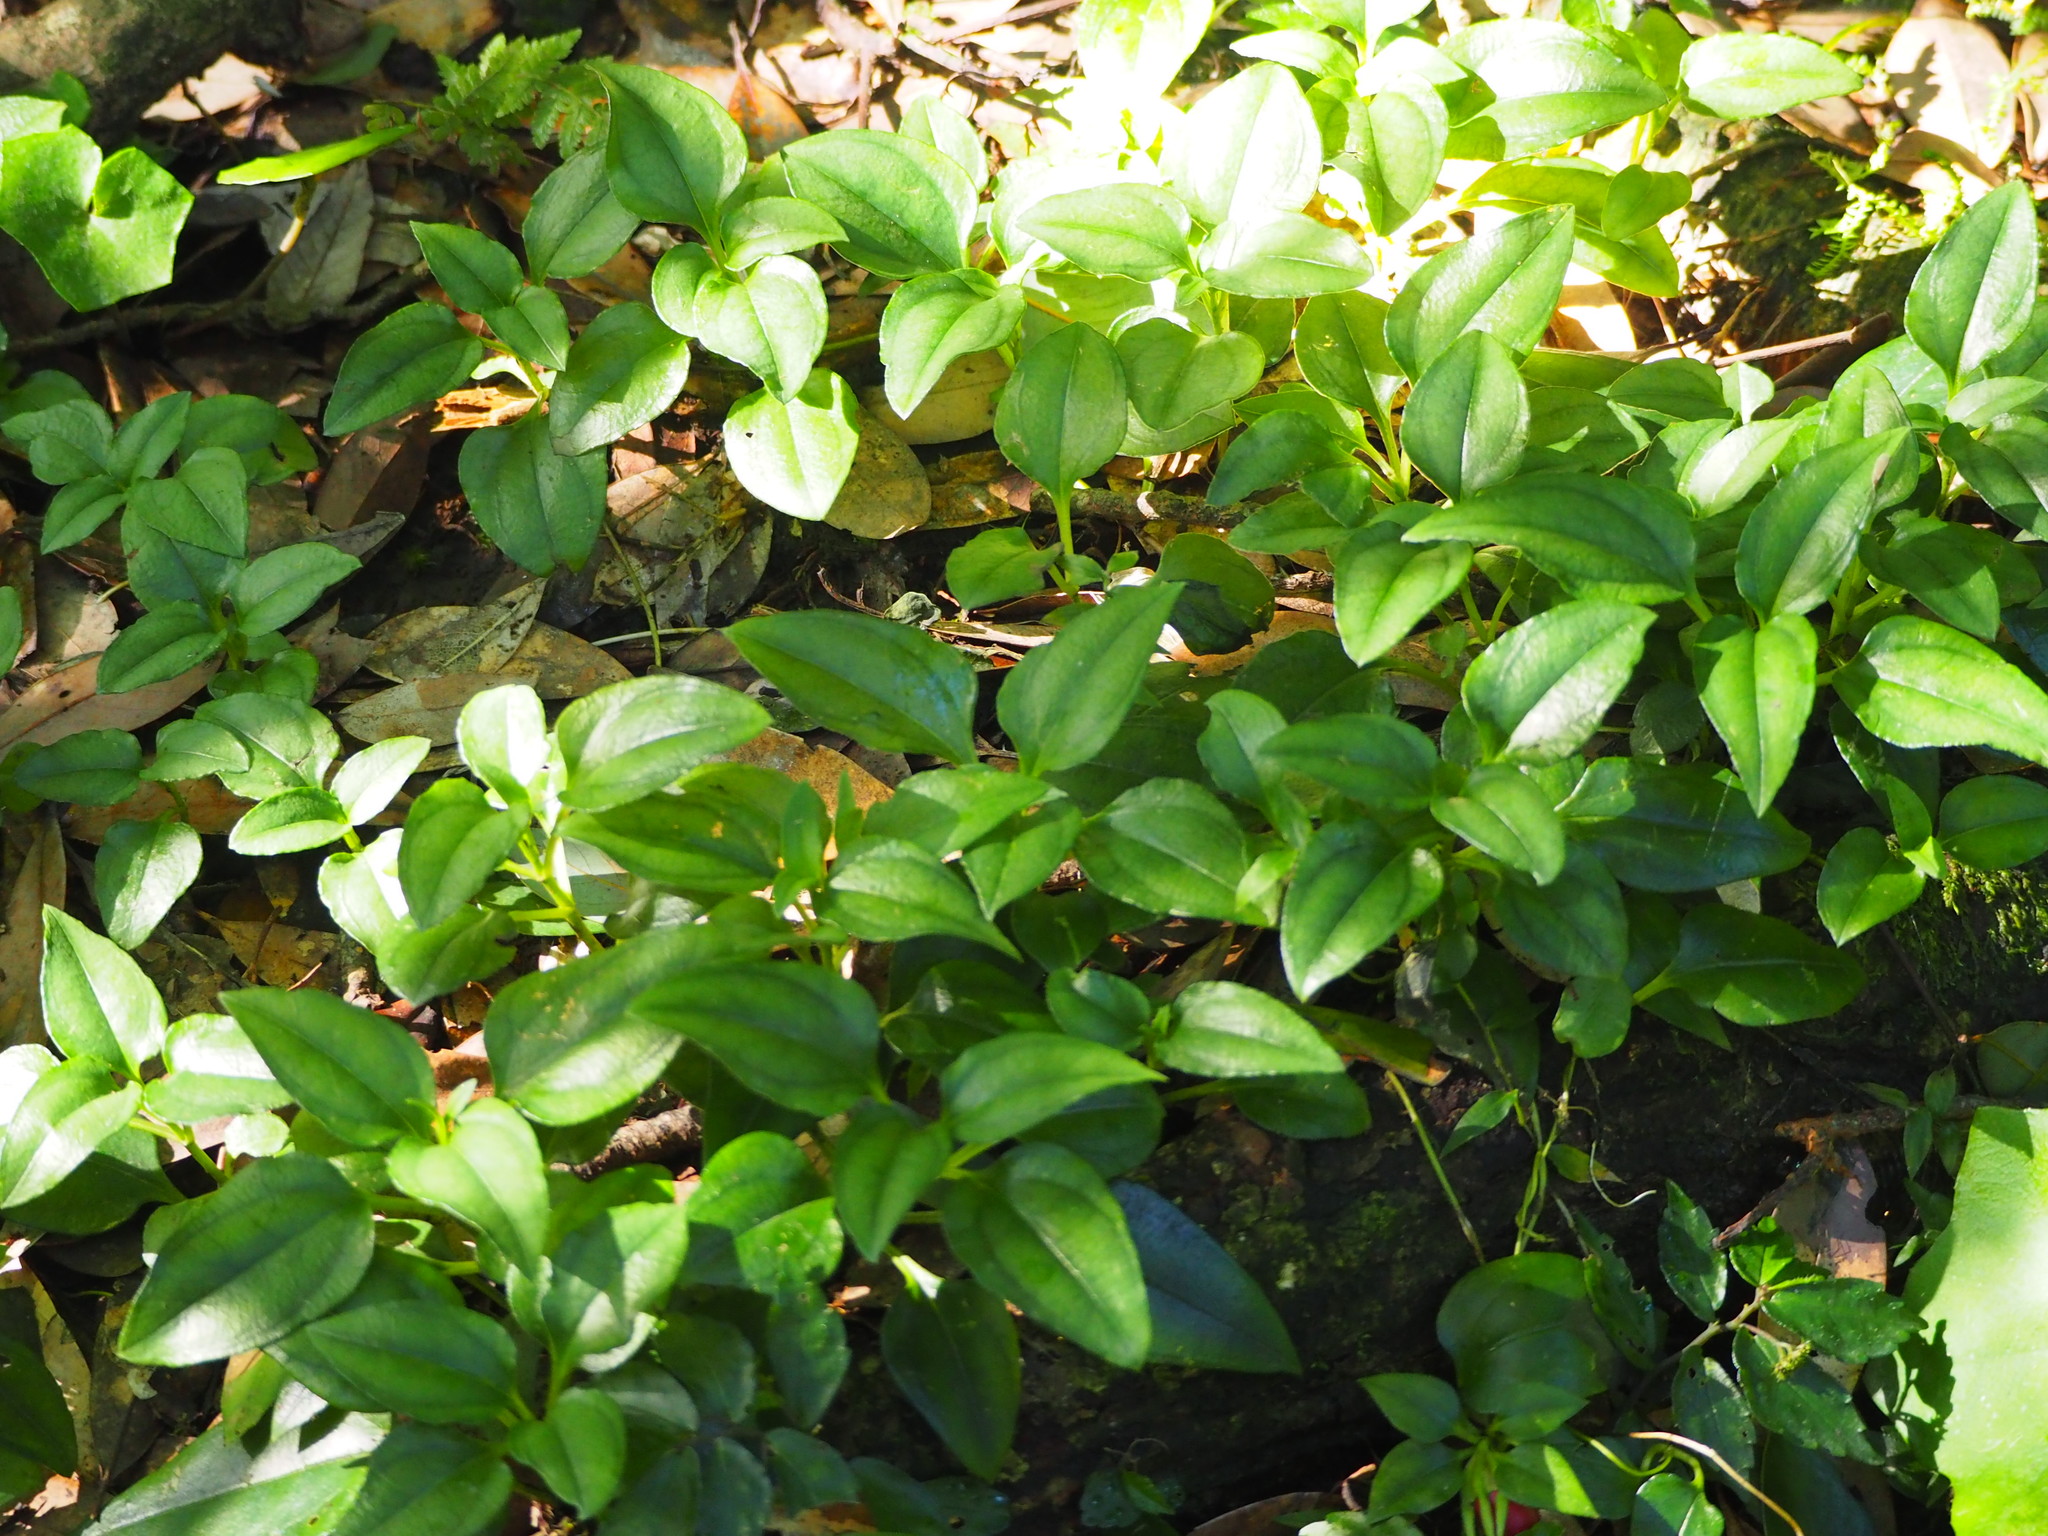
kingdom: Plantae
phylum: Tracheophyta
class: Magnoliopsida
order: Gentianales
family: Gentianaceae
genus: Tripterospermum
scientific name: Tripterospermum alutaceifolium
